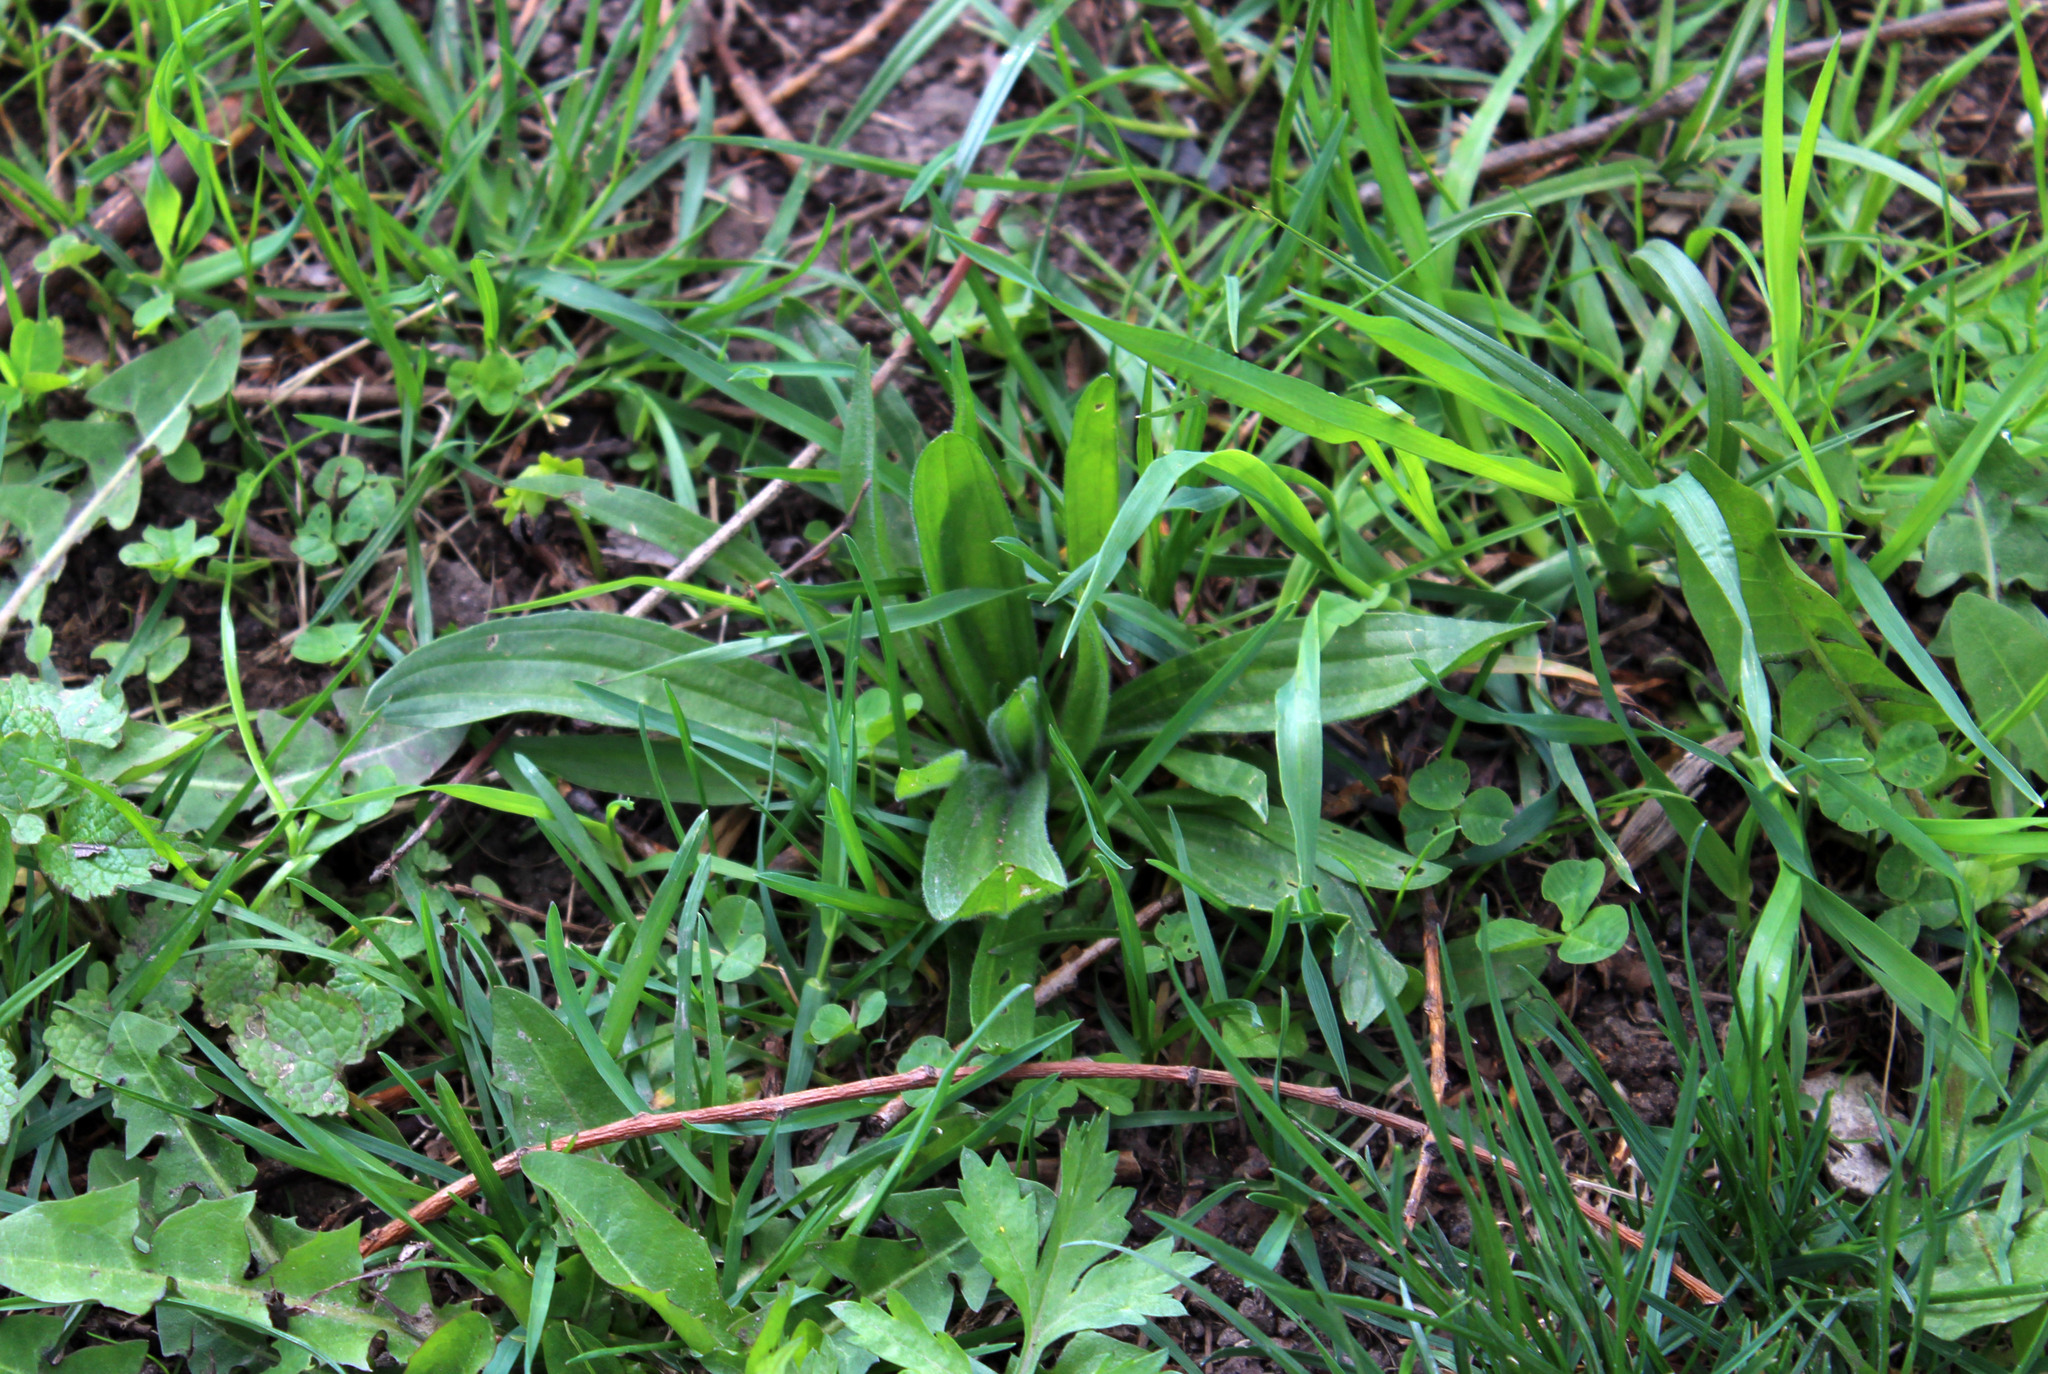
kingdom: Plantae
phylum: Tracheophyta
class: Magnoliopsida
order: Lamiales
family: Plantaginaceae
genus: Plantago
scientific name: Plantago lanceolata
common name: Ribwort plantain
